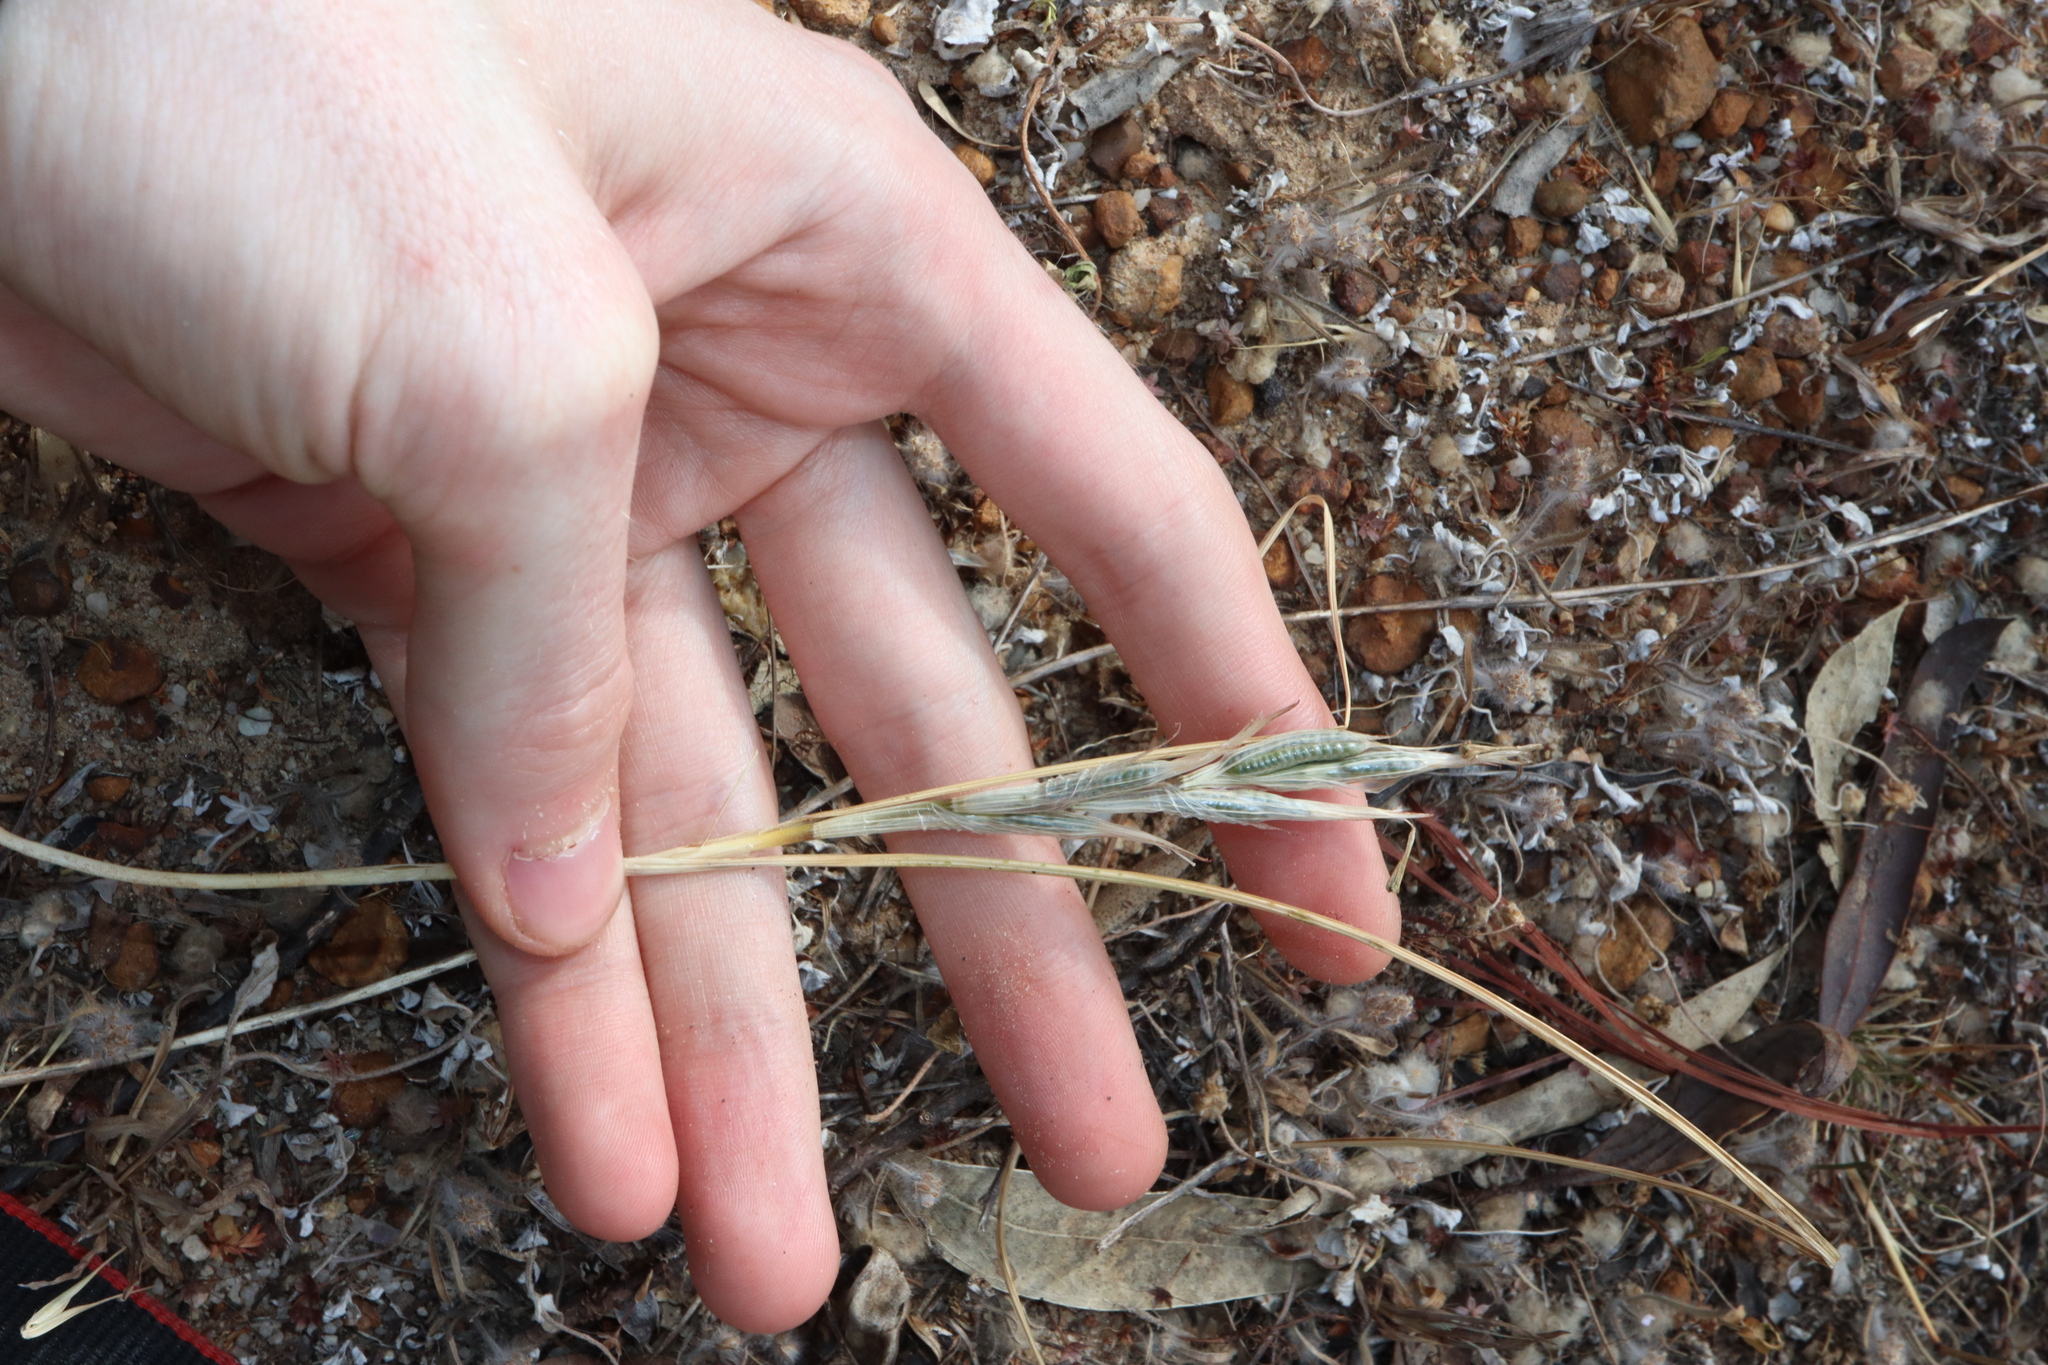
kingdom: Plantae
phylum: Tracheophyta
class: Liliopsida
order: Asparagales
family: Iridaceae
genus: Moraea
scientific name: Moraea setifolia
